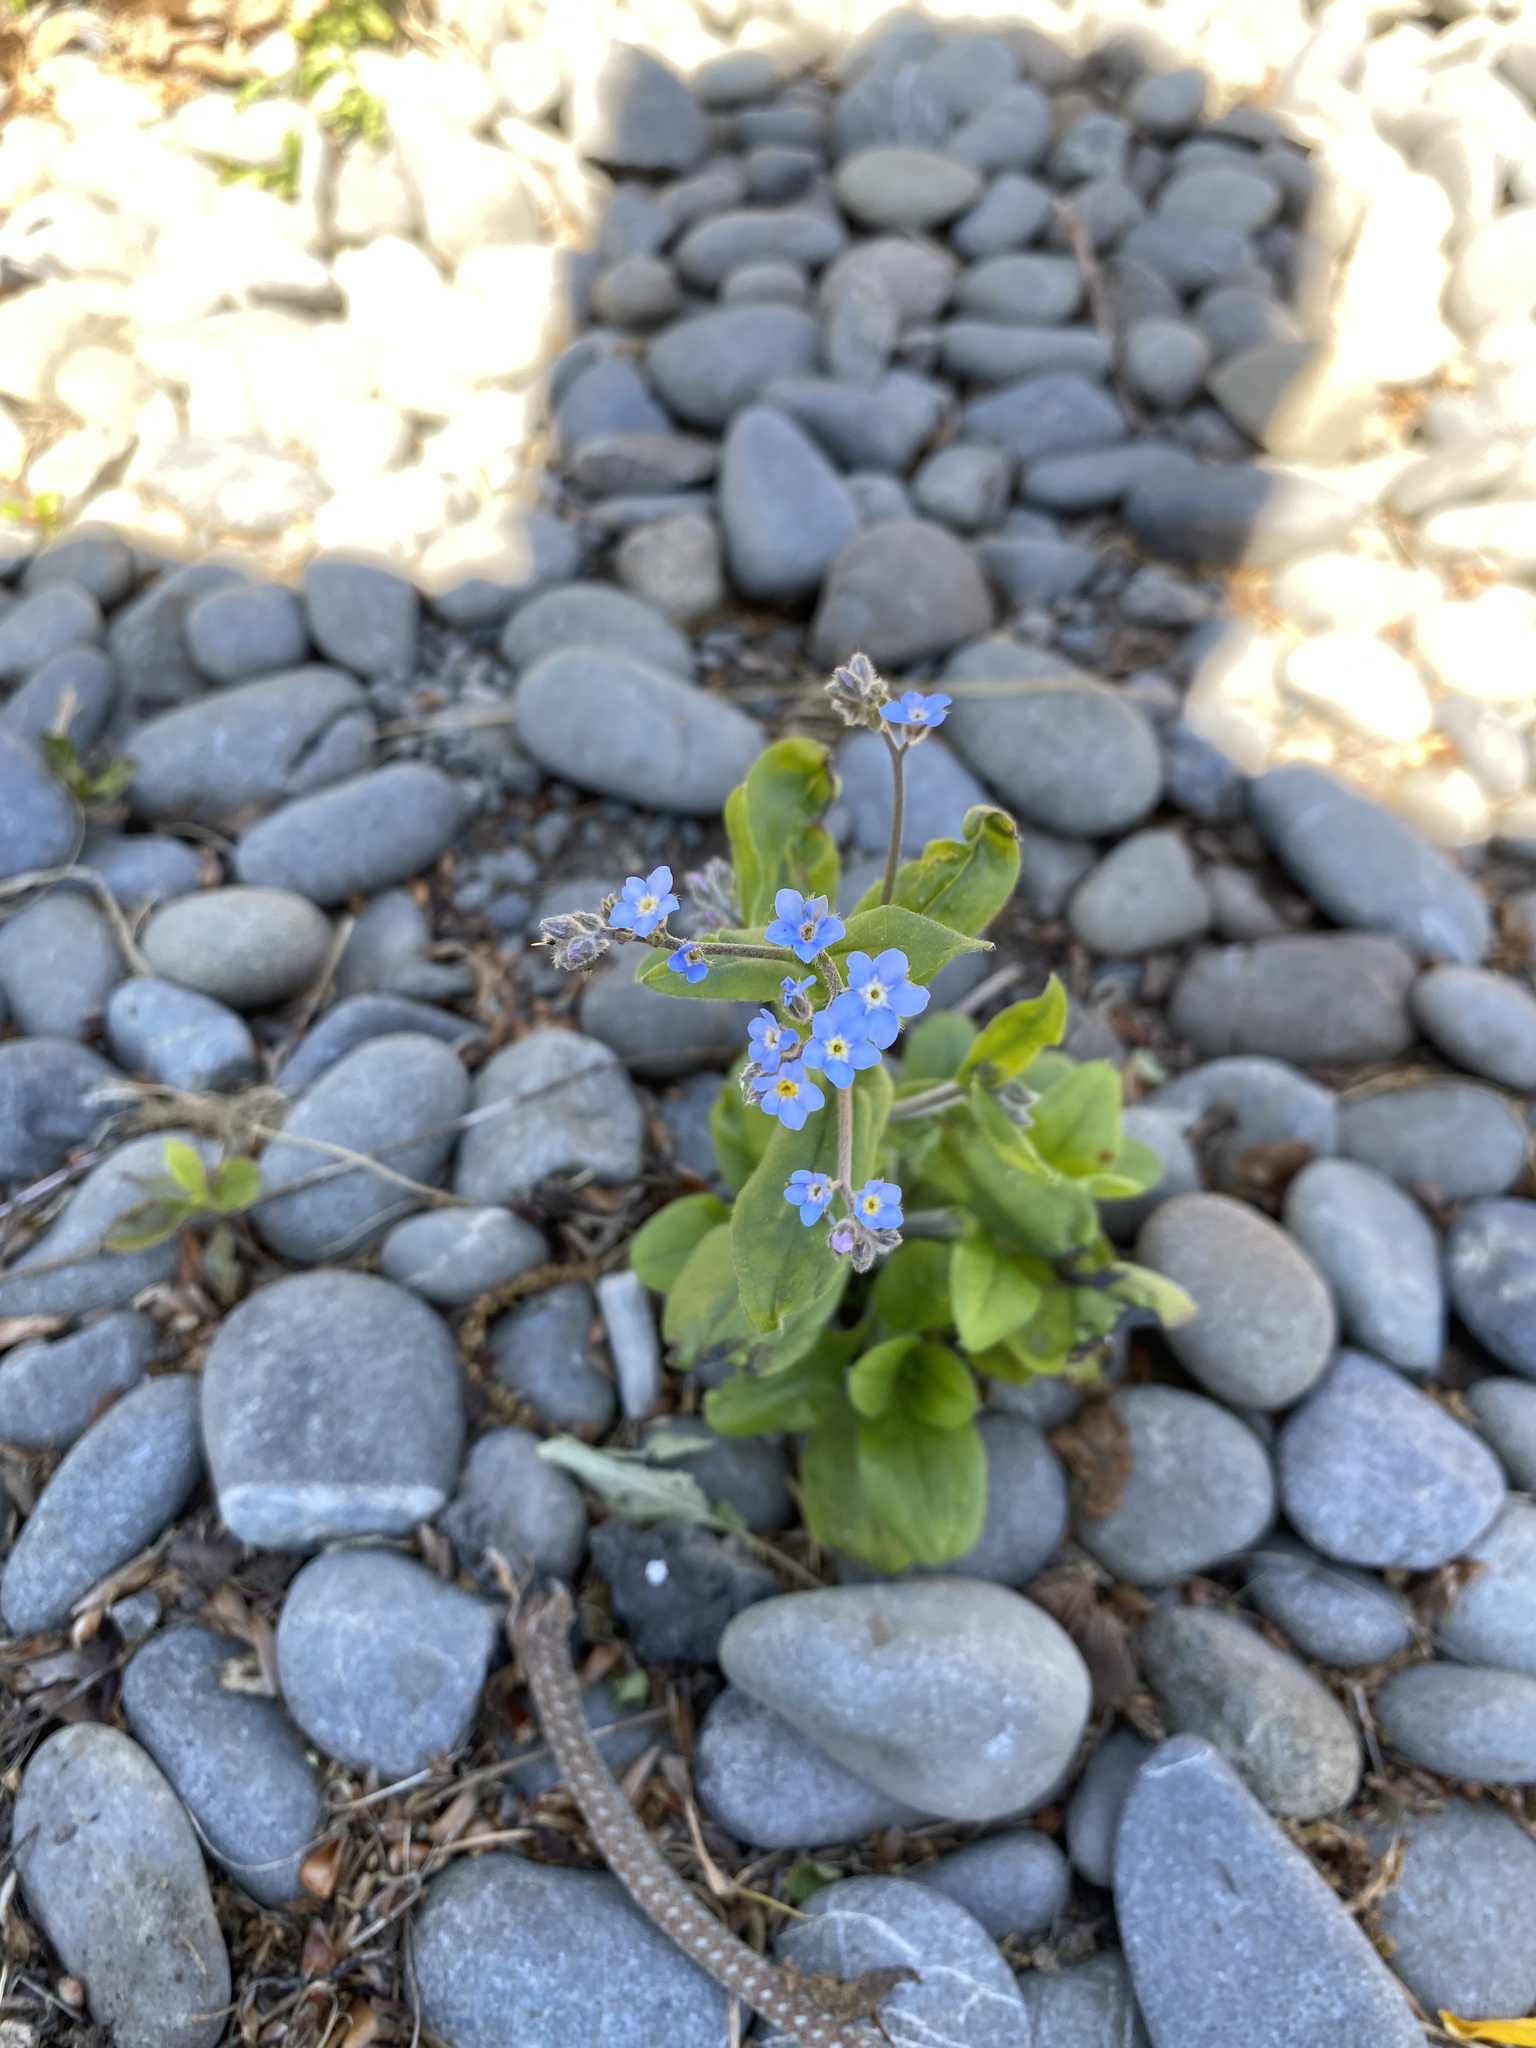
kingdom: Plantae
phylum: Tracheophyta
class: Magnoliopsida
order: Boraginales
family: Boraginaceae
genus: Myosotis
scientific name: Myosotis sylvatica
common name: Wood forget-me-not
